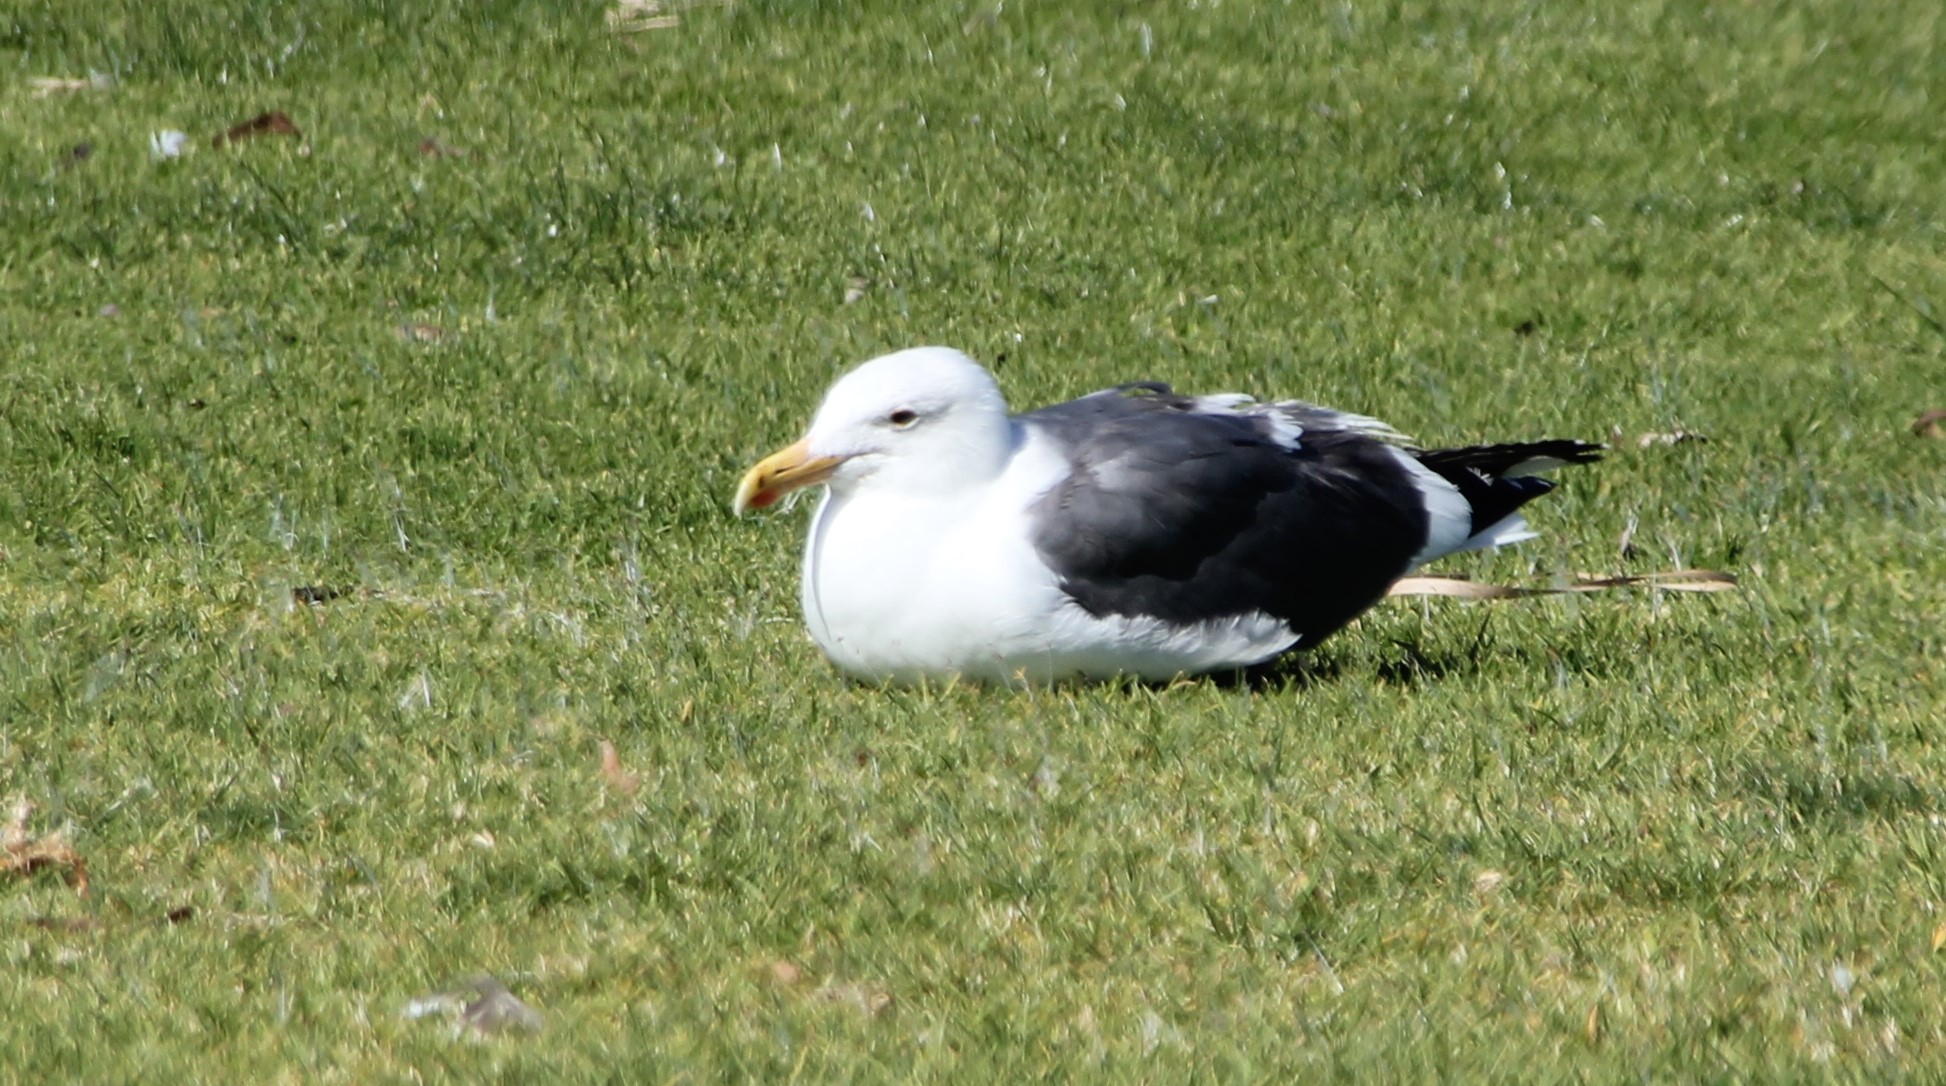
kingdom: Animalia
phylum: Chordata
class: Aves
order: Charadriiformes
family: Laridae
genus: Larus
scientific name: Larus occidentalis
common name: Western gull
